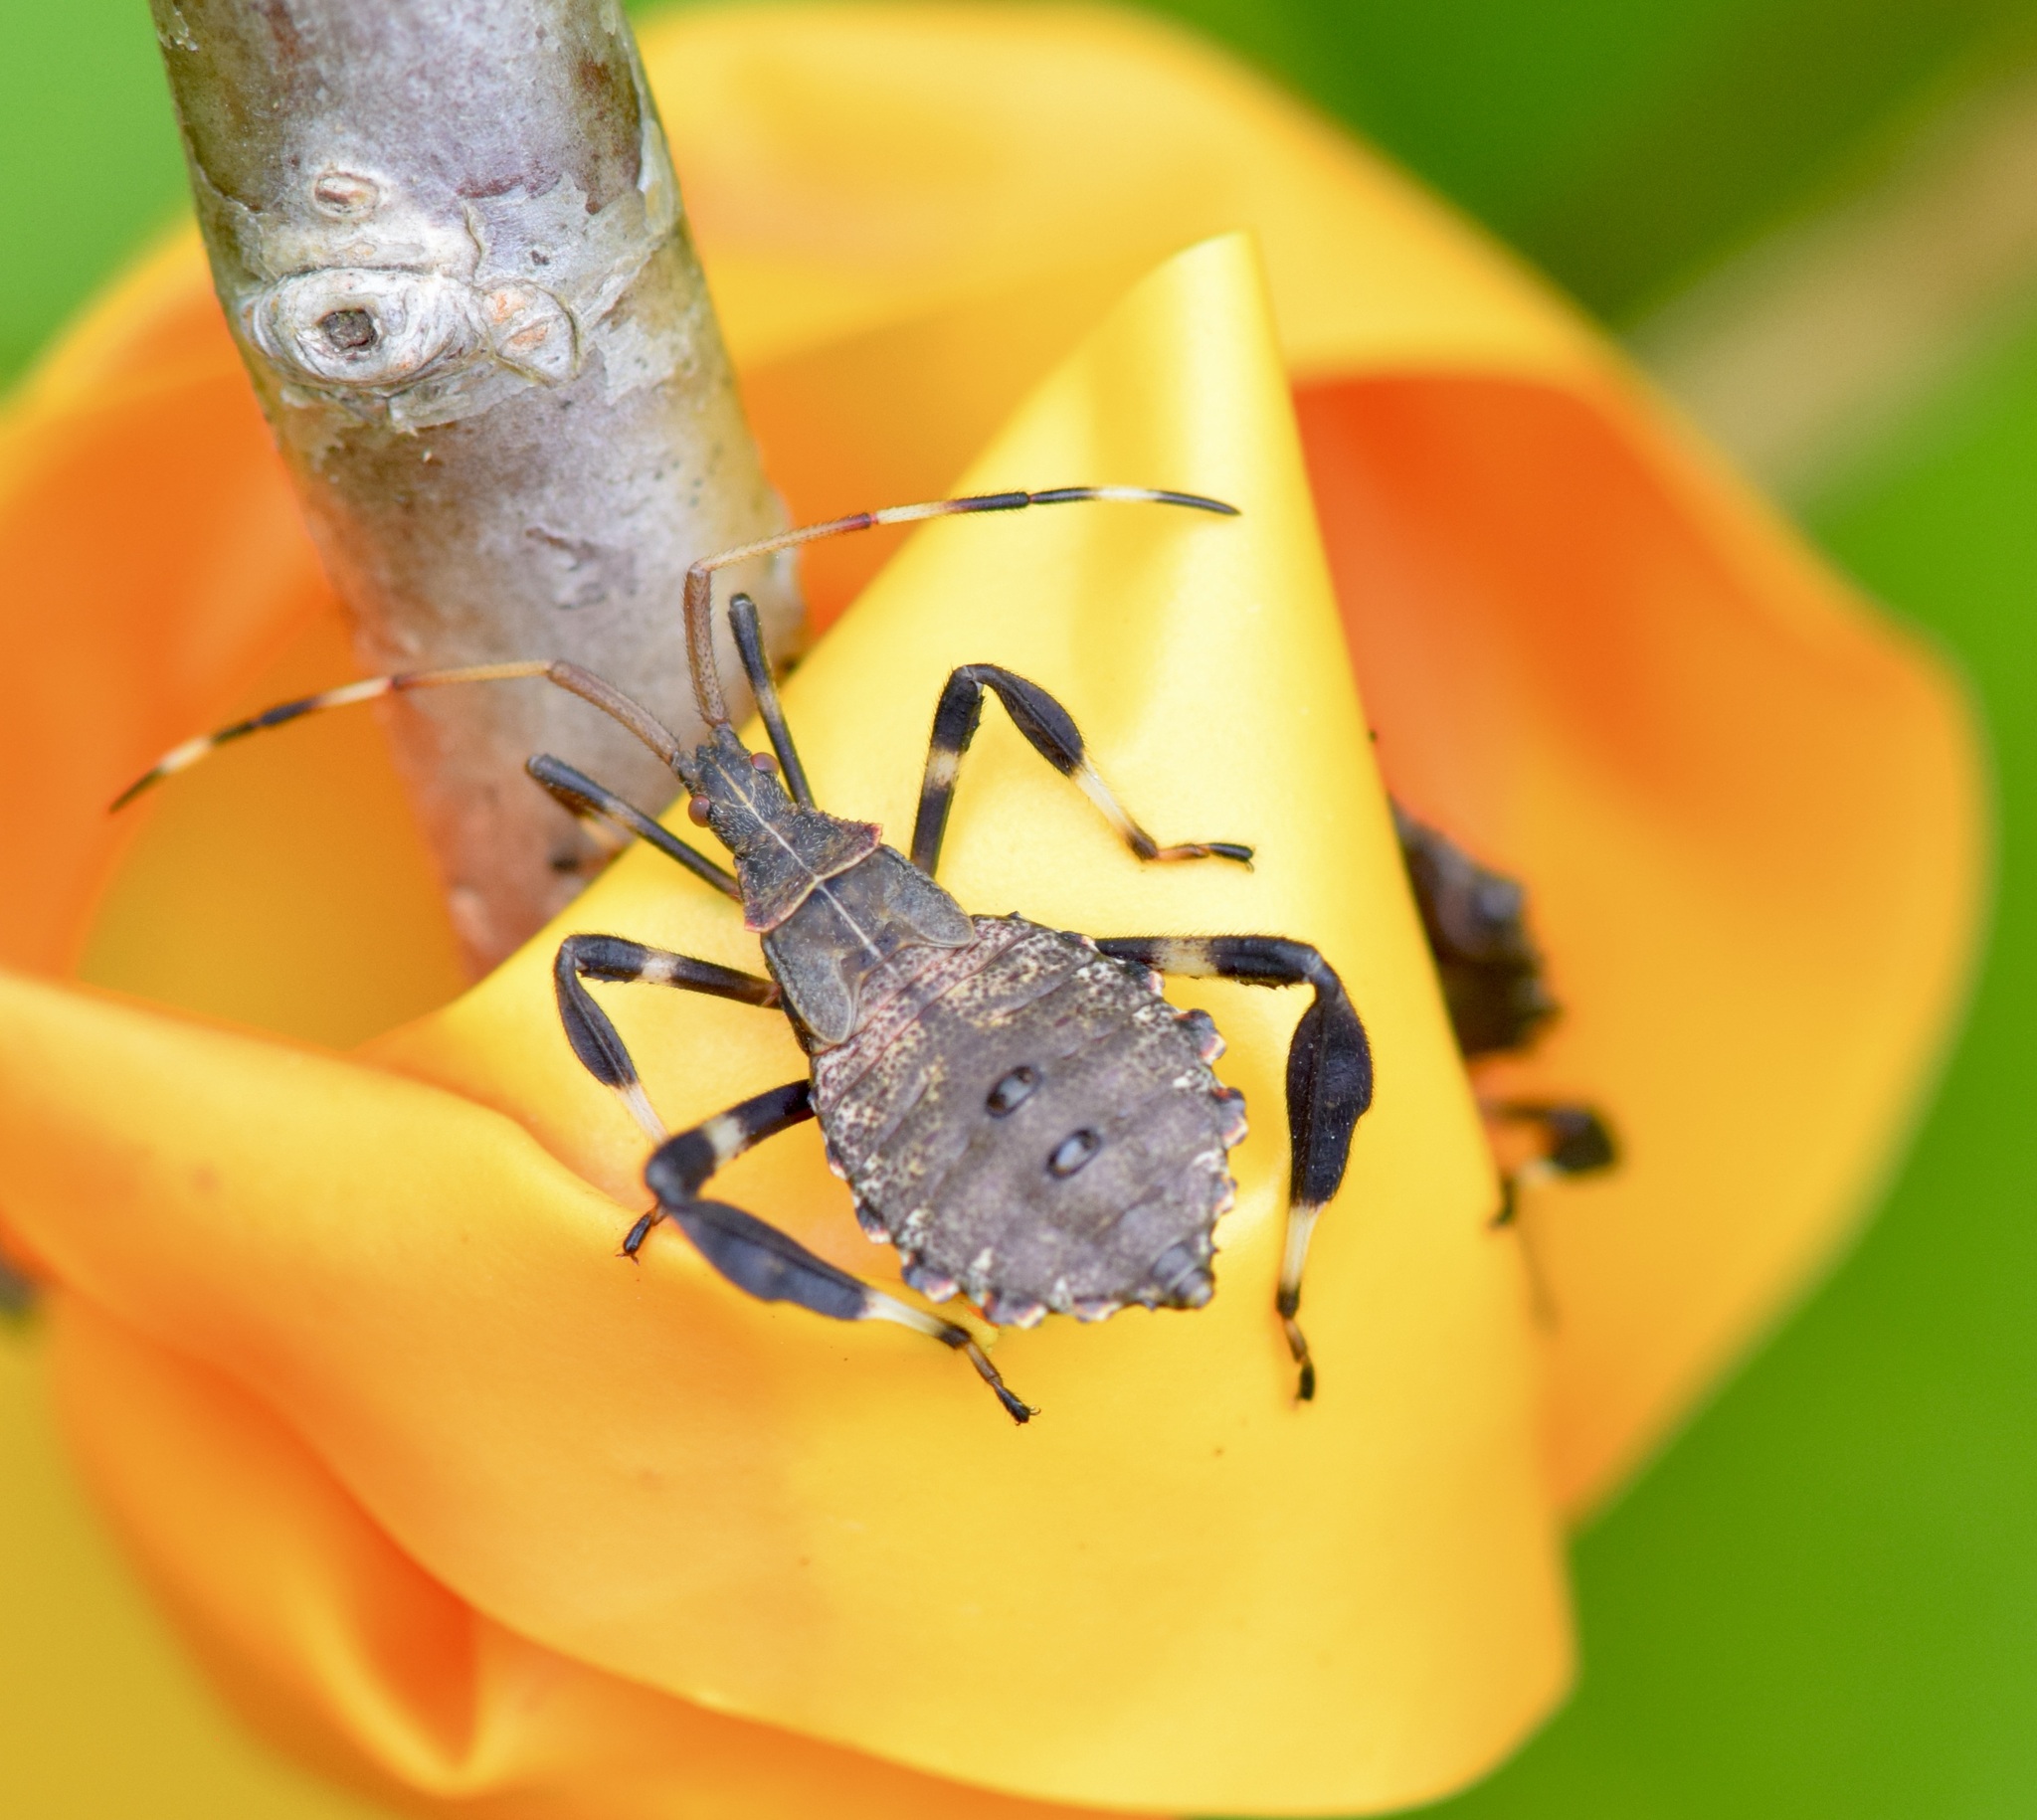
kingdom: Animalia
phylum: Arthropoda
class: Insecta
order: Hemiptera
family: Coreidae
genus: Acanthocephala
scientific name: Acanthocephala terminalis
